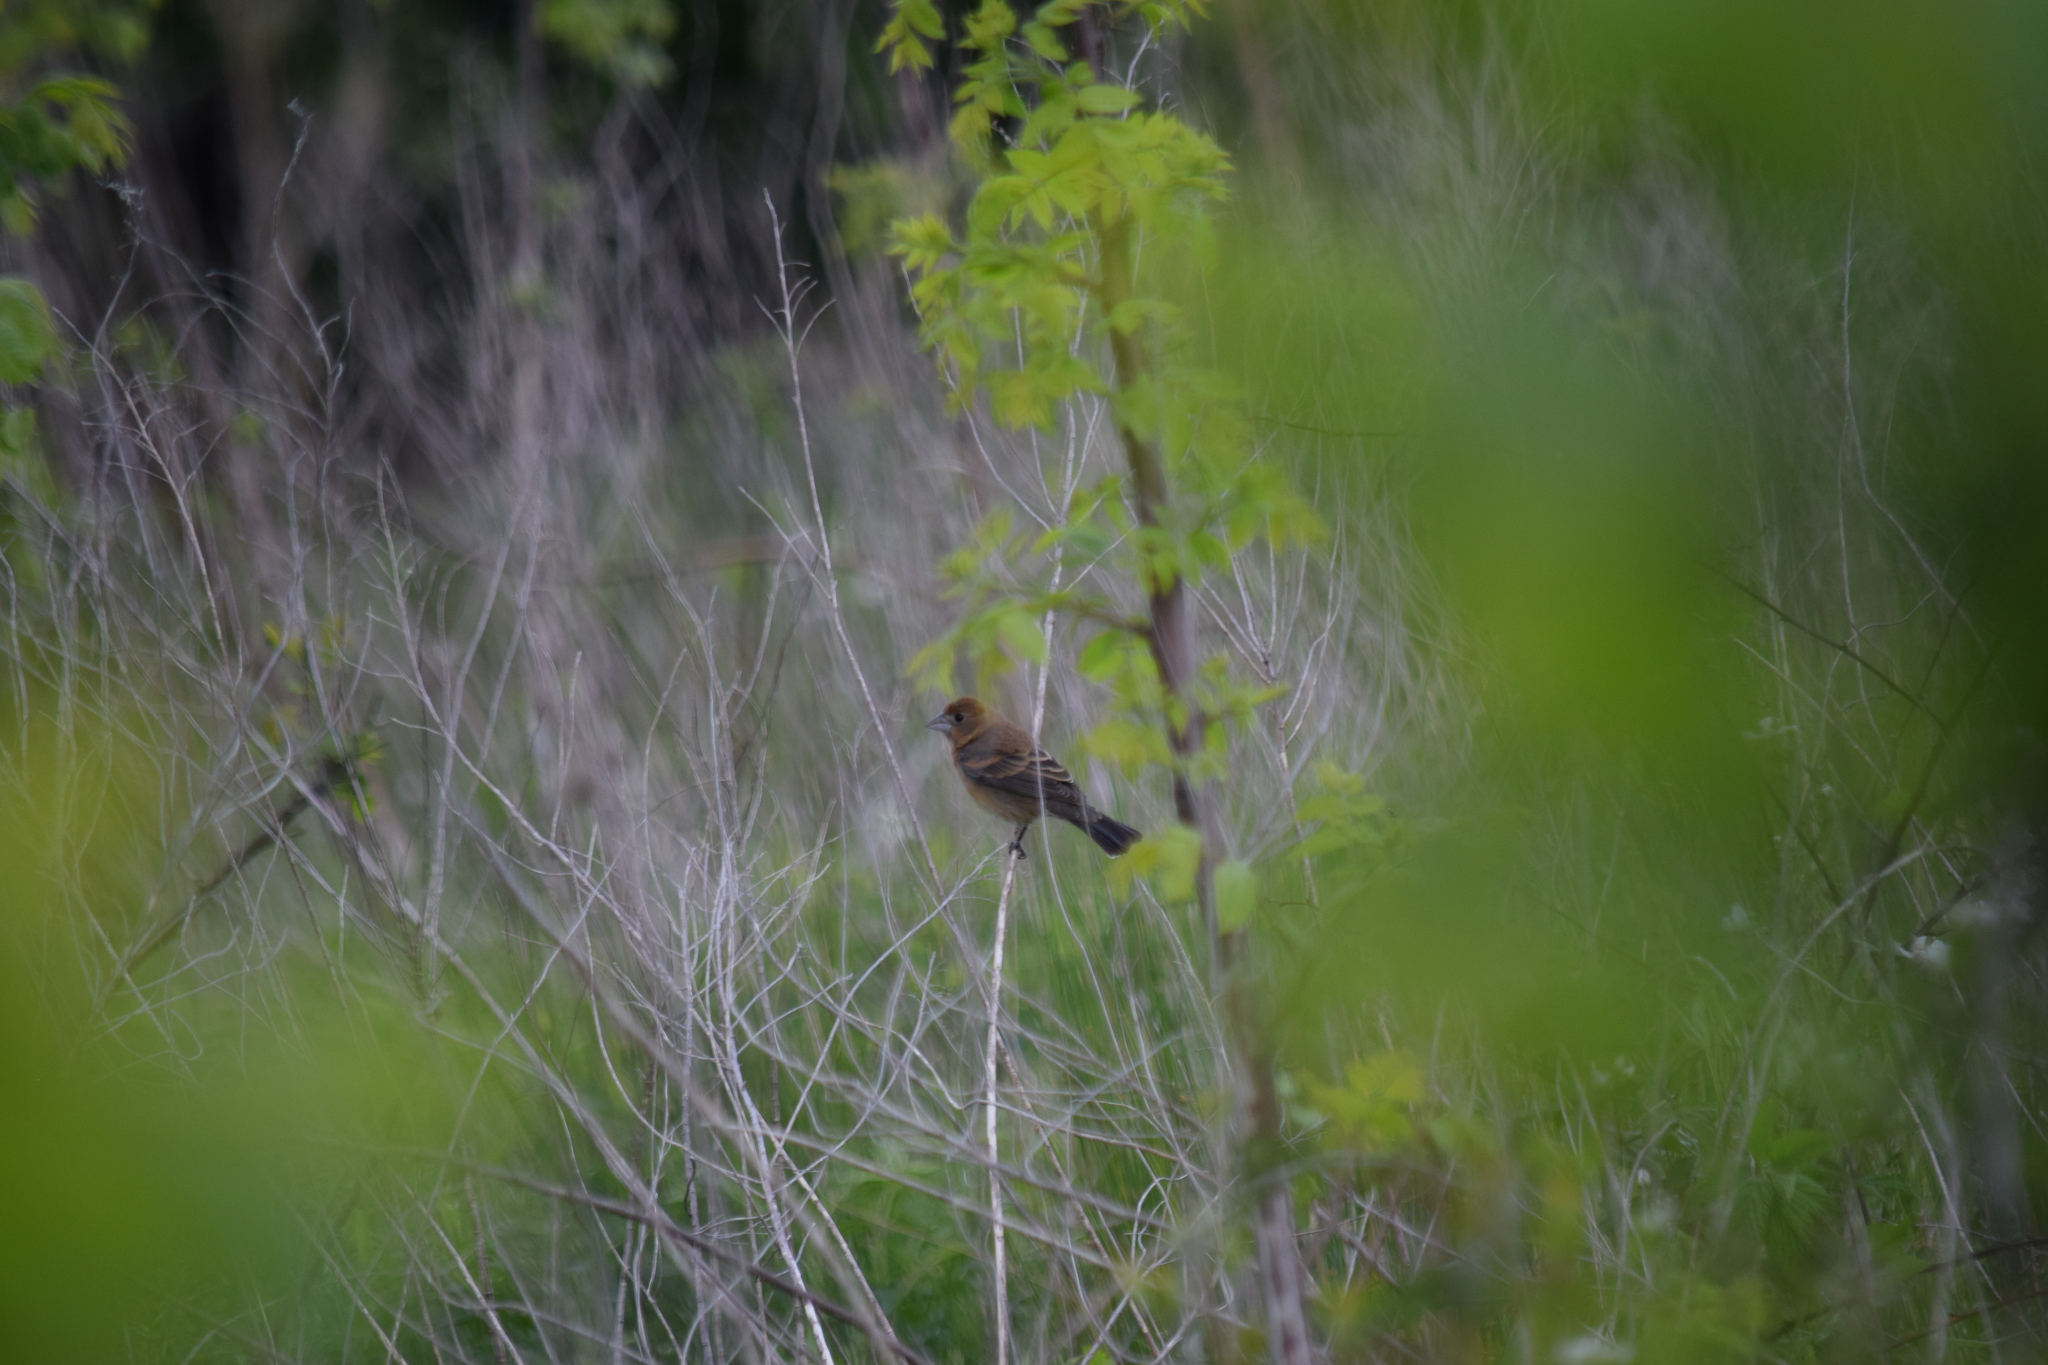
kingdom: Animalia
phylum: Chordata
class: Aves
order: Passeriformes
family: Cardinalidae
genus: Passerina
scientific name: Passerina caerulea
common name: Blue grosbeak
